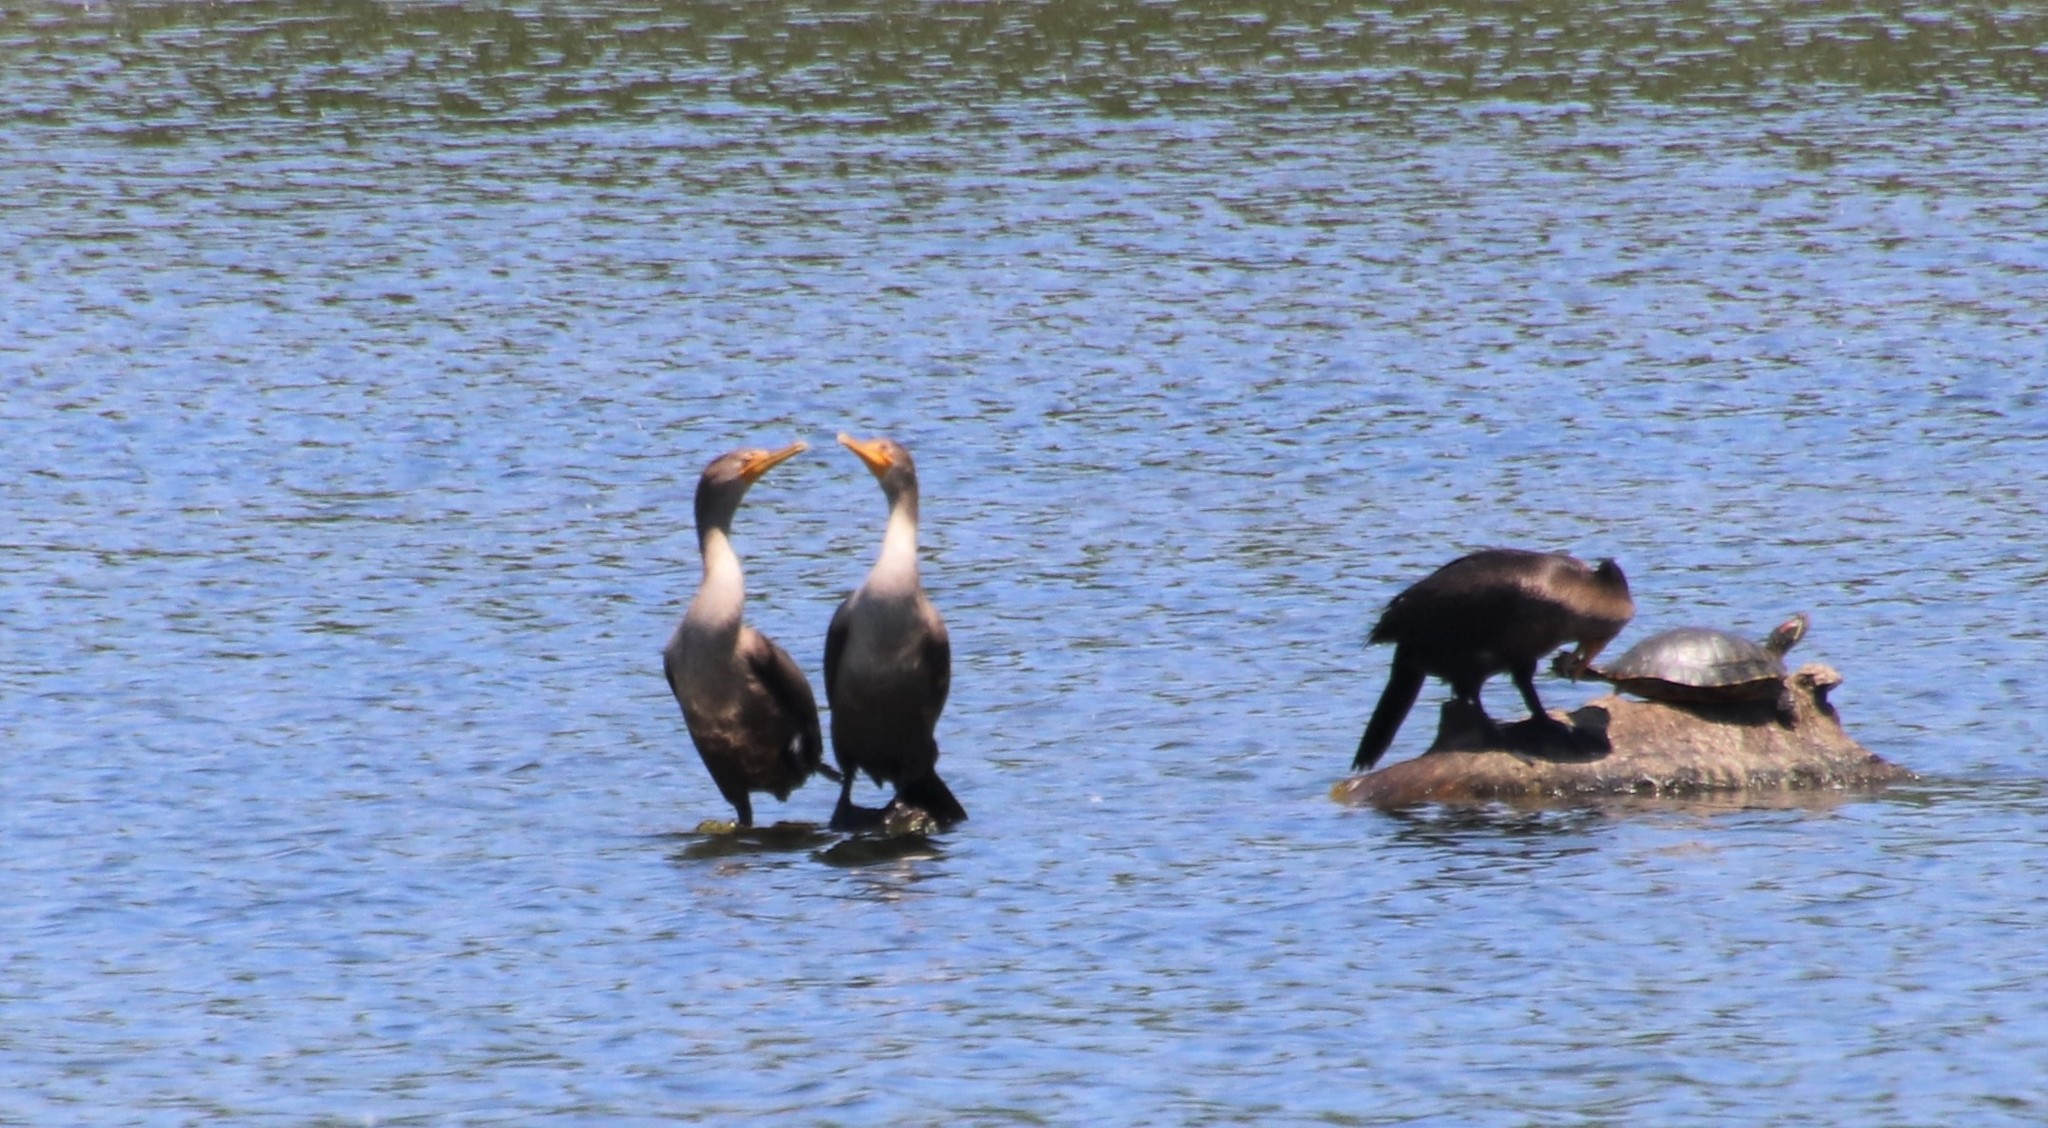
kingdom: Animalia
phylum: Chordata
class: Aves
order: Suliformes
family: Phalacrocoracidae
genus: Phalacrocorax
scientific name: Phalacrocorax auritus
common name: Double-crested cormorant
